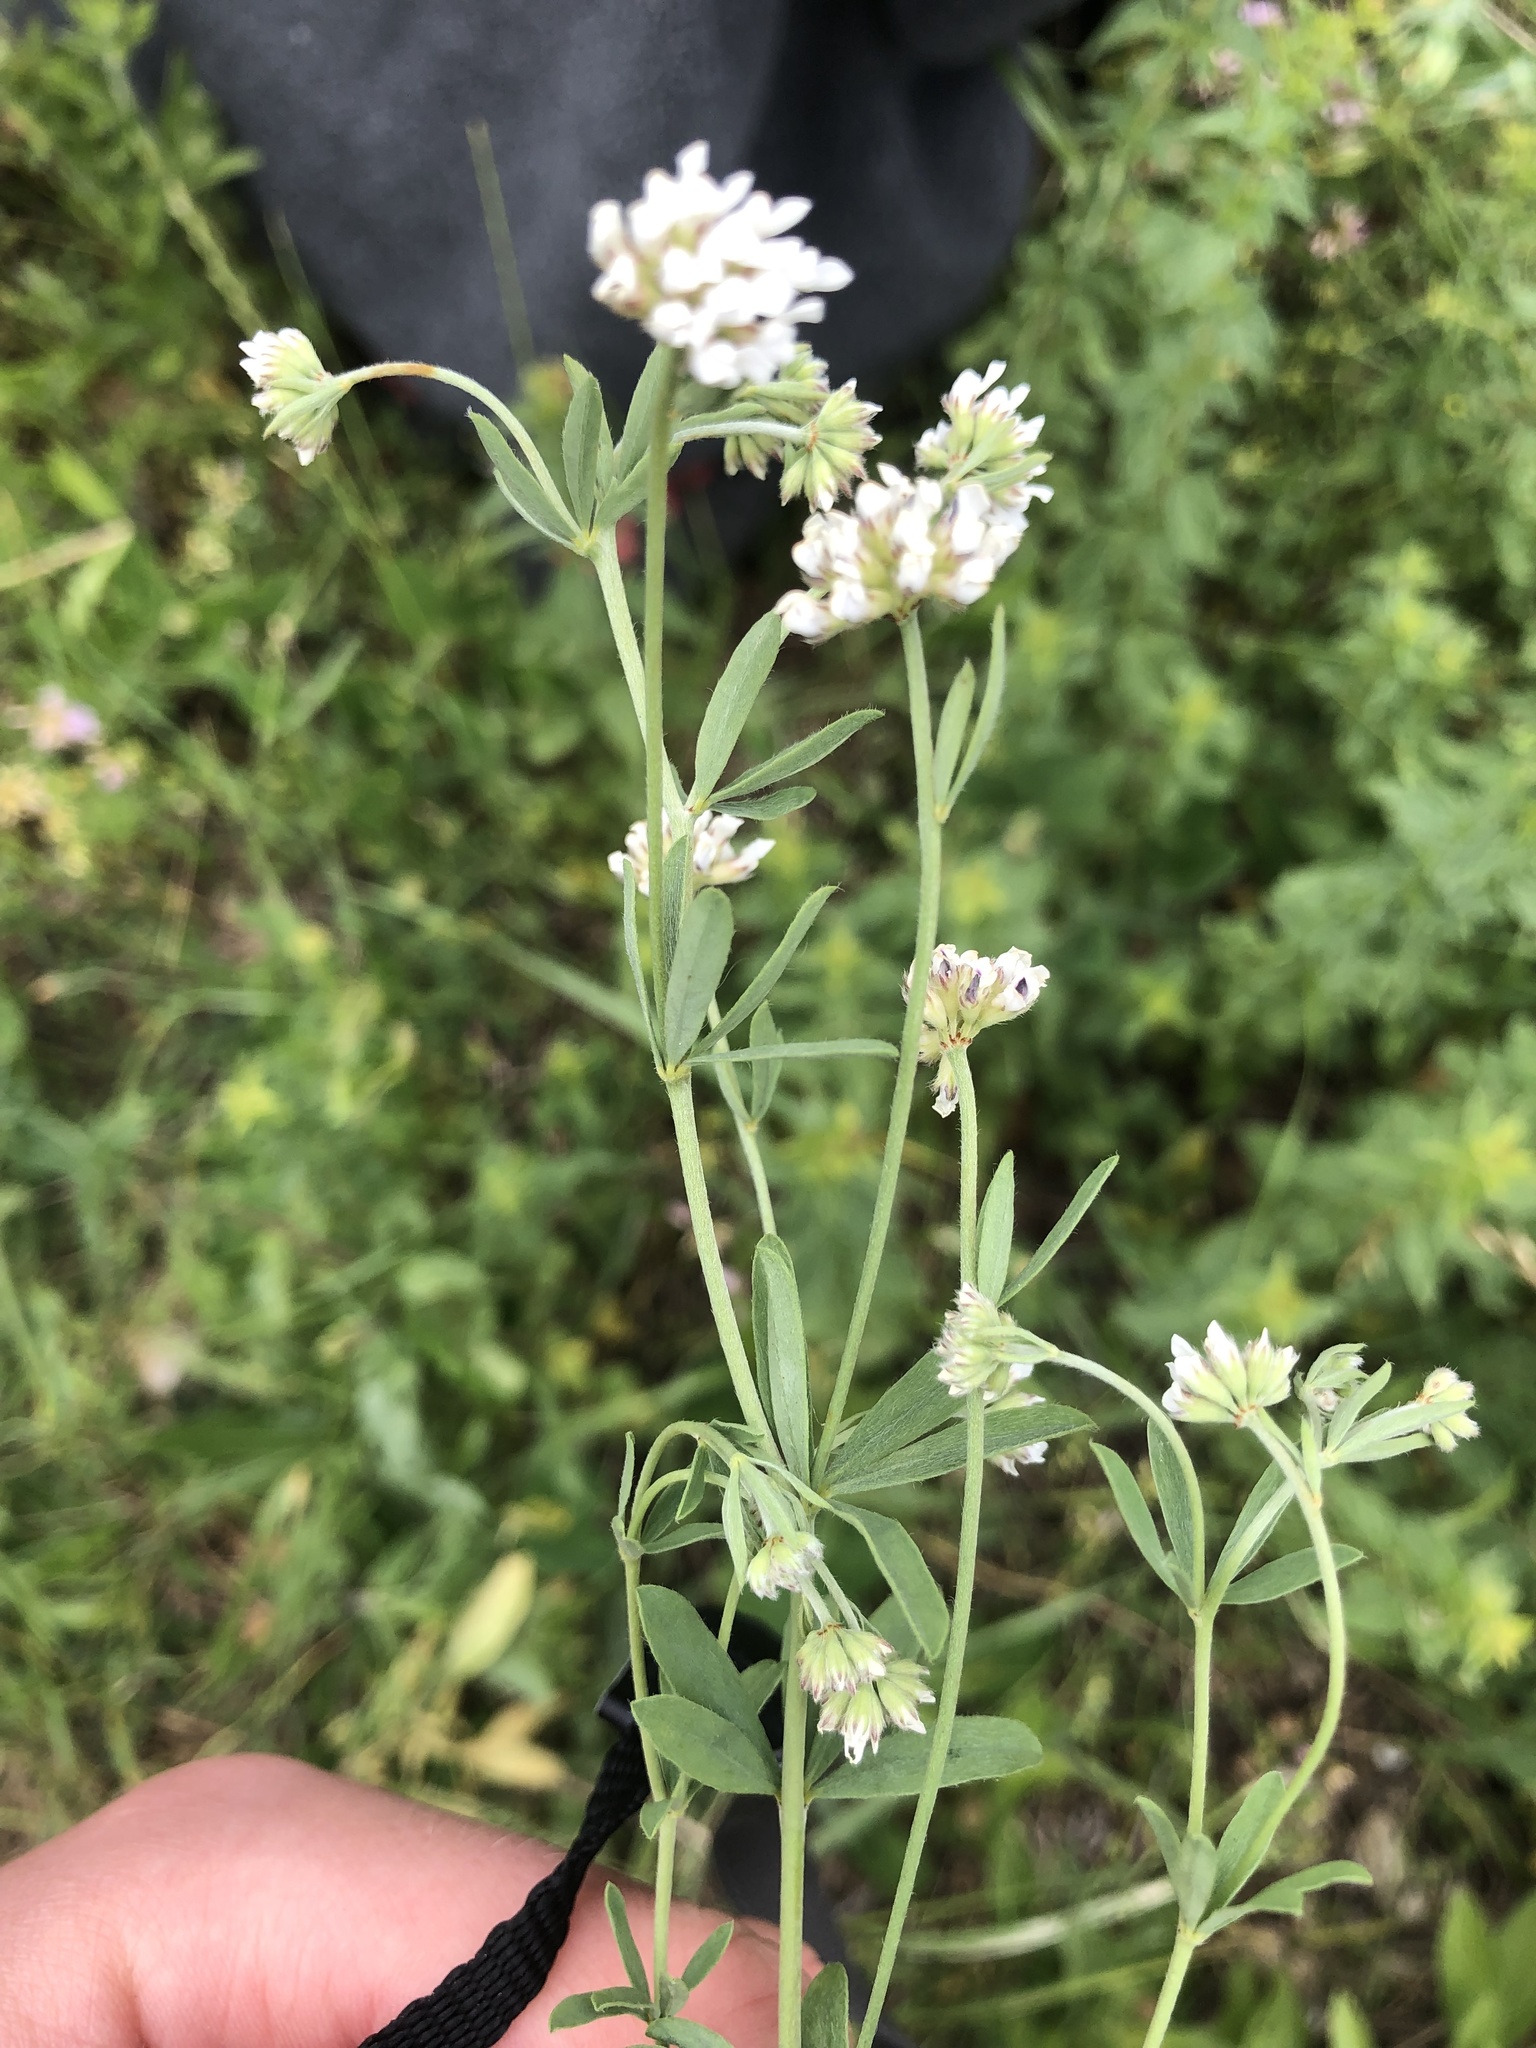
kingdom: Plantae
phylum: Tracheophyta
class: Magnoliopsida
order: Fabales
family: Fabaceae
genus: Lotus
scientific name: Lotus germanicus
